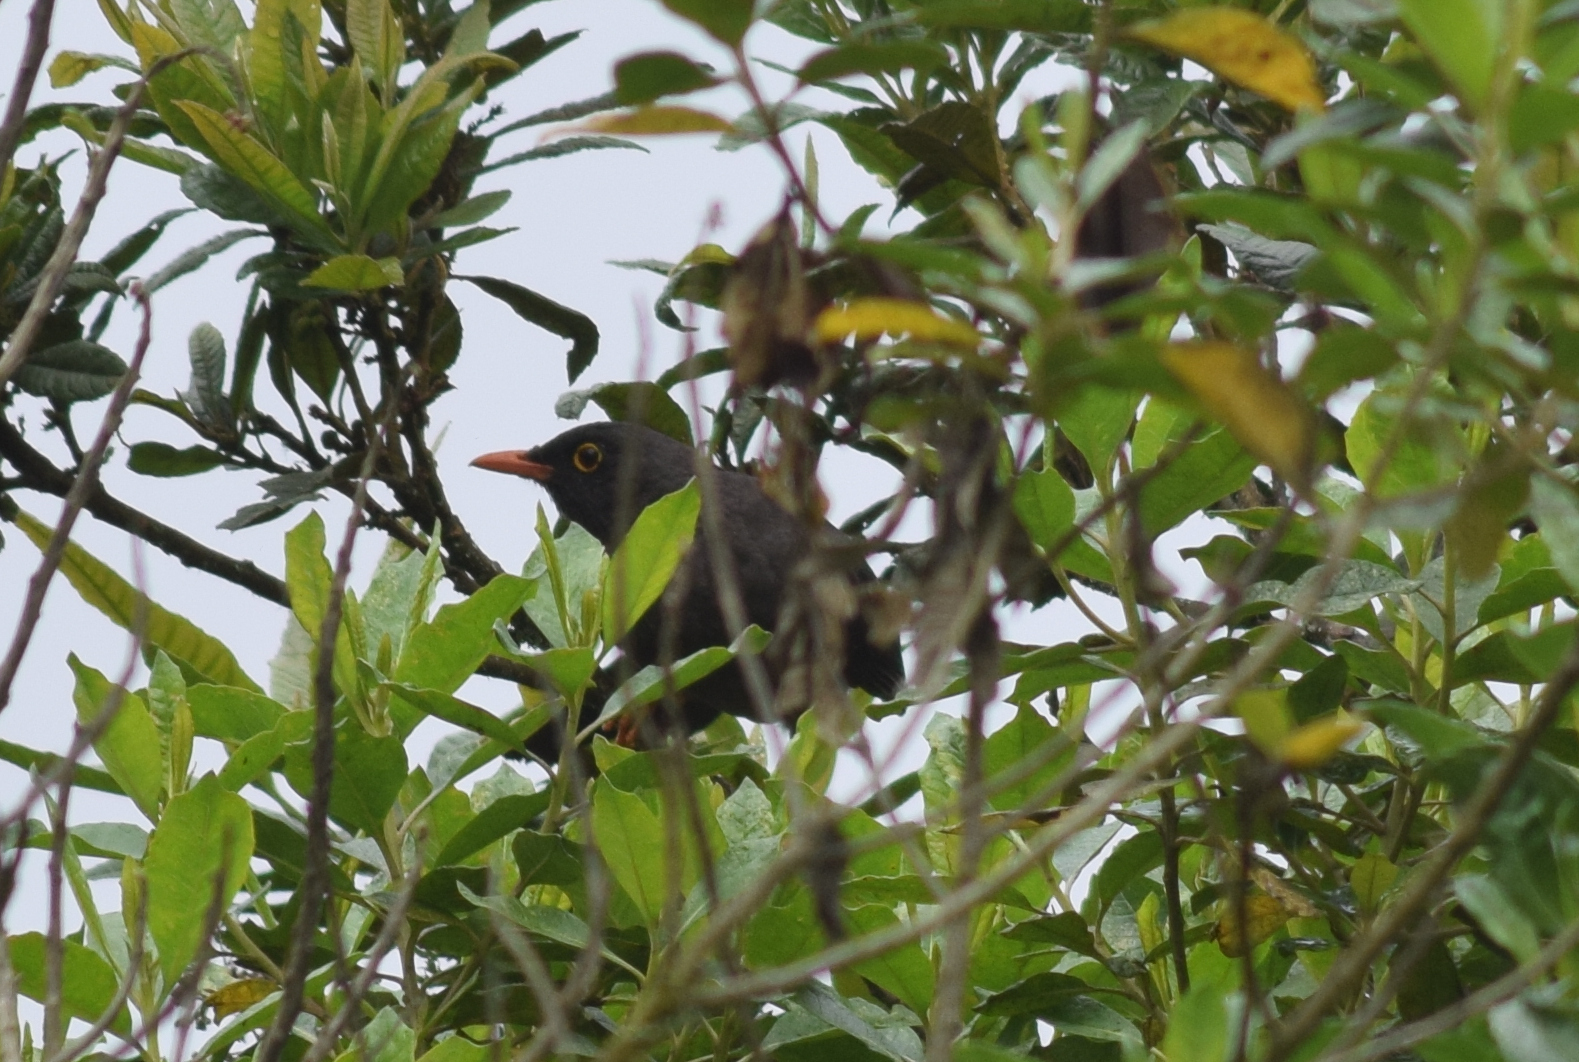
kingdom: Animalia
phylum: Chordata
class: Aves
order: Passeriformes
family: Turdidae
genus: Turdus
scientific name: Turdus fuscater
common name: Great thrush
